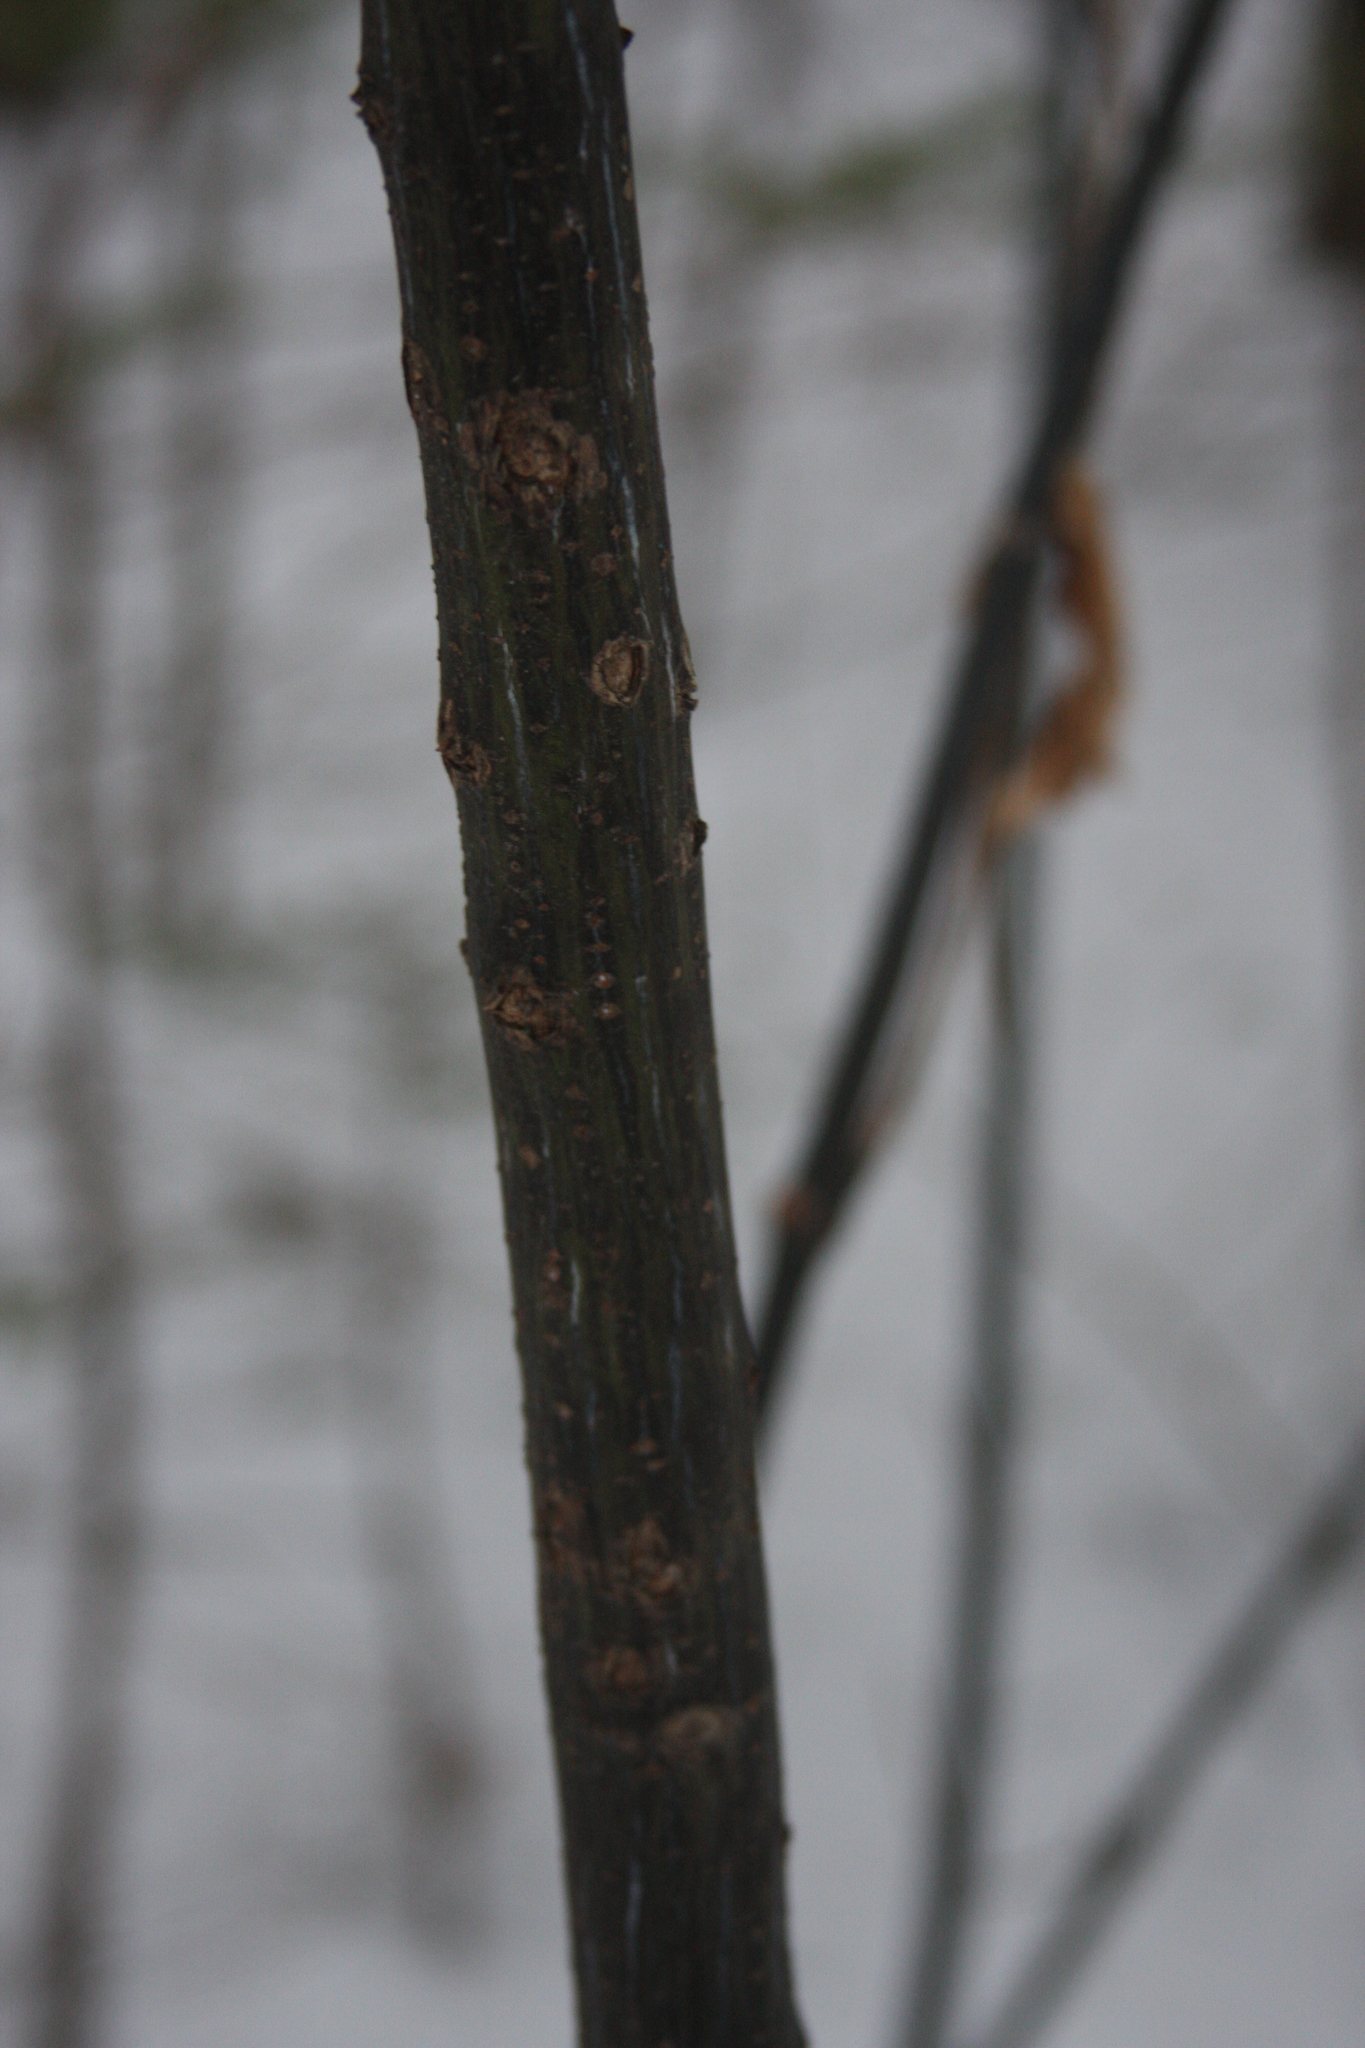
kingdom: Plantae
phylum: Tracheophyta
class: Magnoliopsida
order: Sapindales
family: Sapindaceae
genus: Acer
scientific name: Acer pensylvanicum
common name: Moosewood
